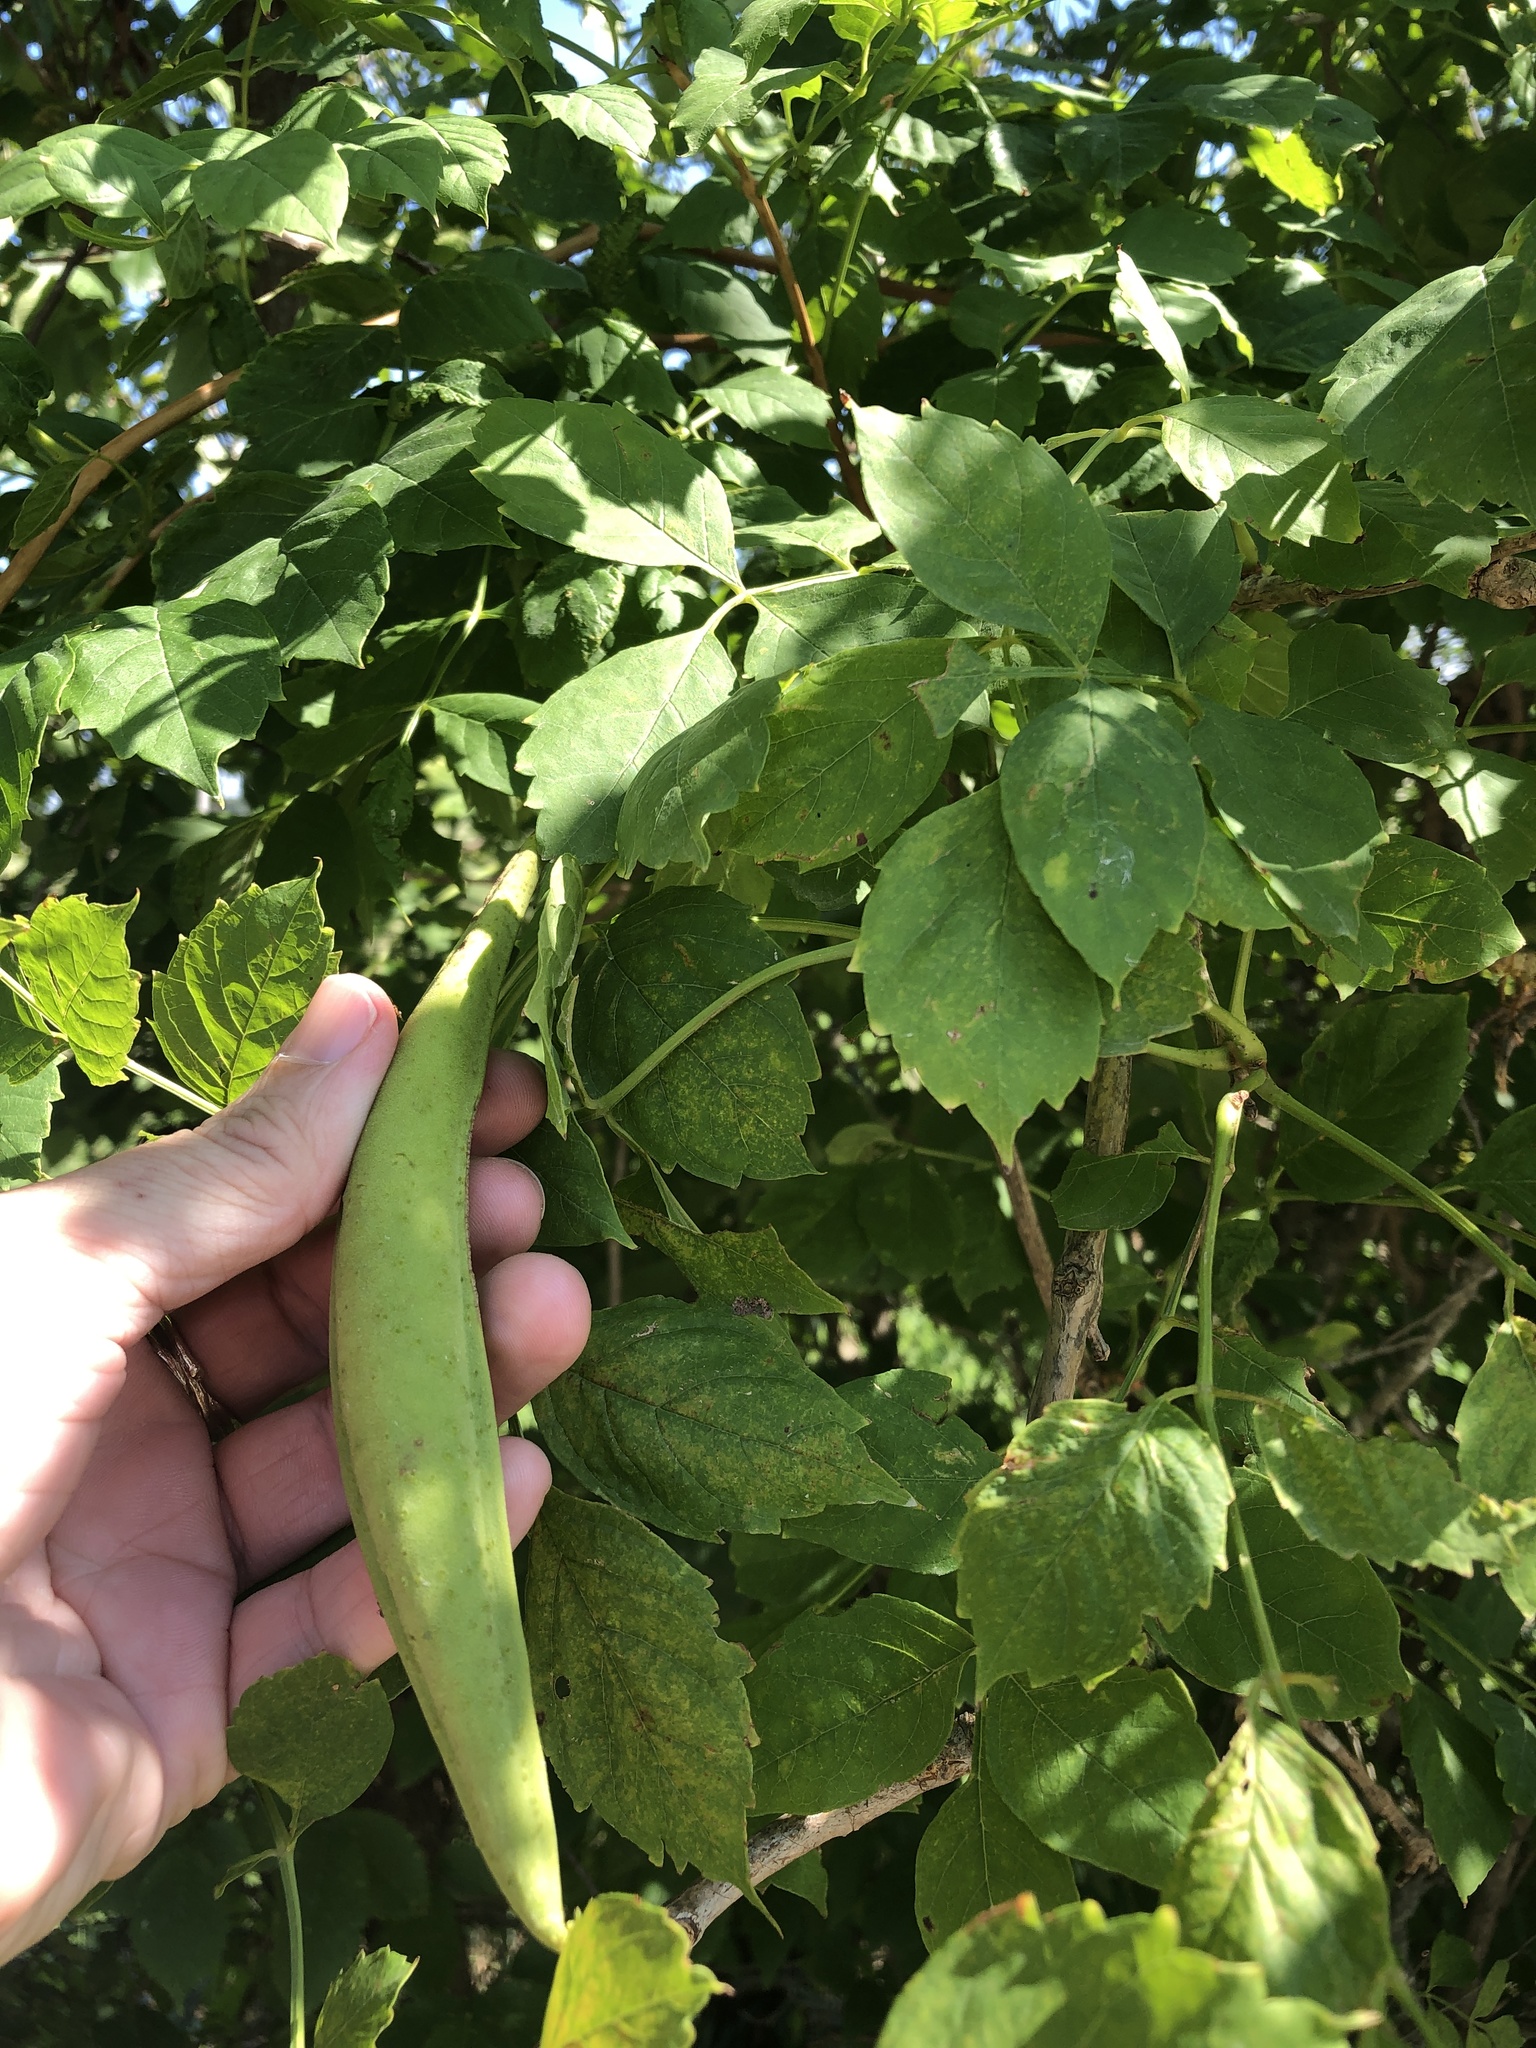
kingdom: Plantae
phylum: Tracheophyta
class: Magnoliopsida
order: Lamiales
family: Bignoniaceae
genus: Campsis
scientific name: Campsis radicans
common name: Trumpet-creeper
